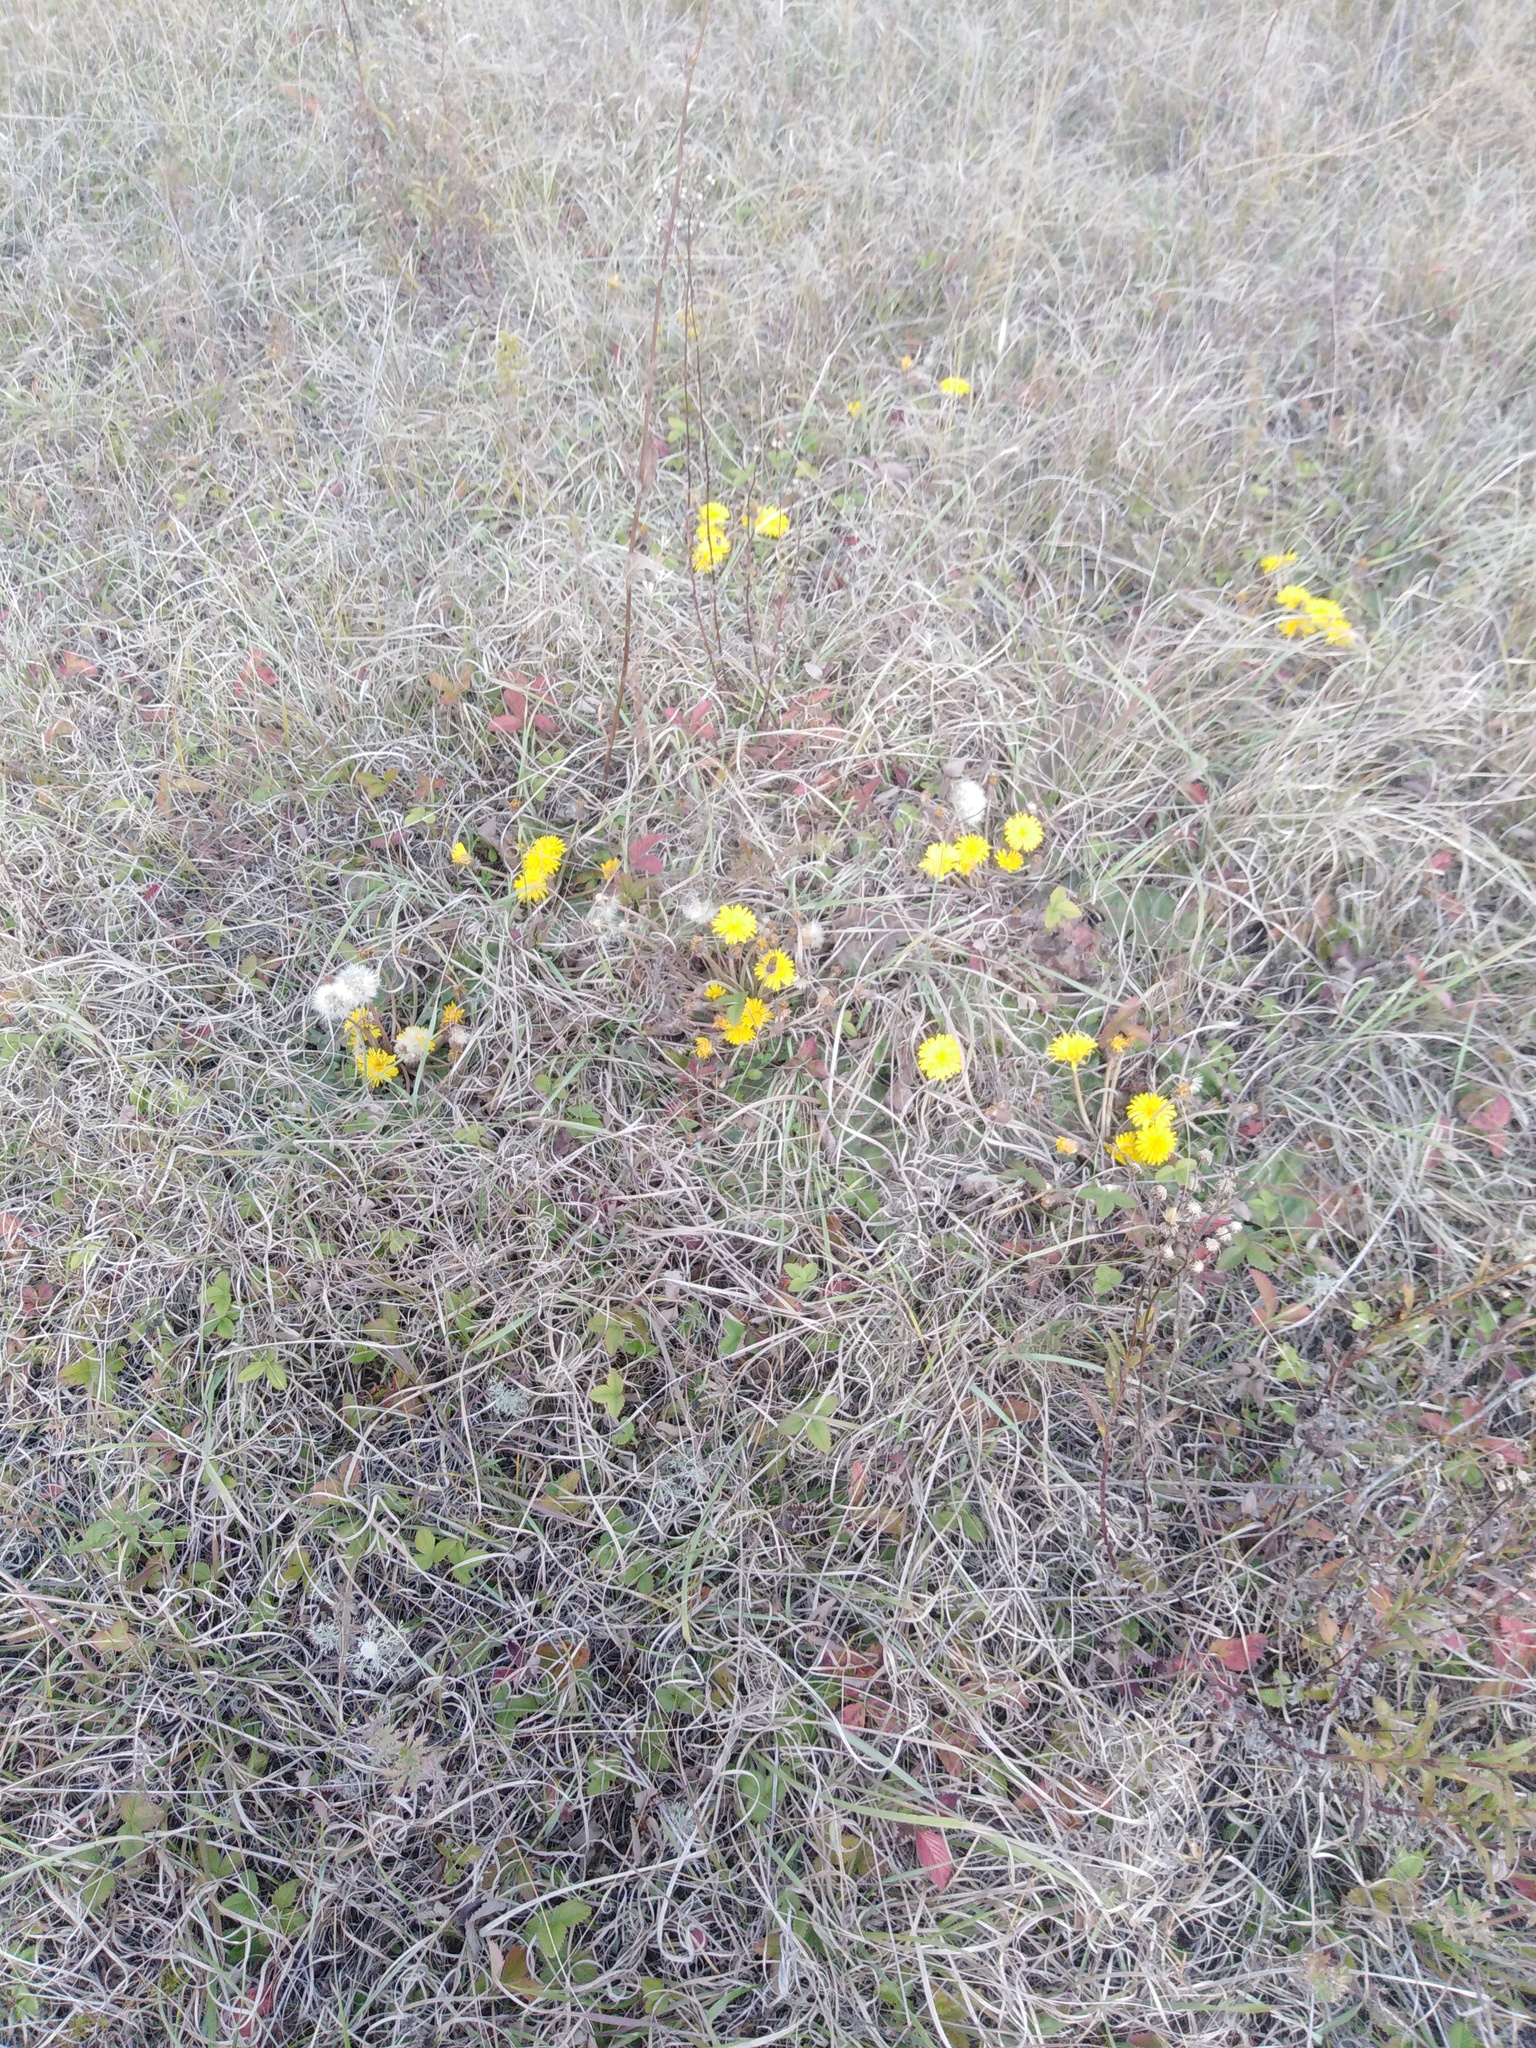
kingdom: Plantae
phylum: Tracheophyta
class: Magnoliopsida
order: Asterales
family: Asteraceae
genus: Taraxacum
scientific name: Taraxacum serotinum
